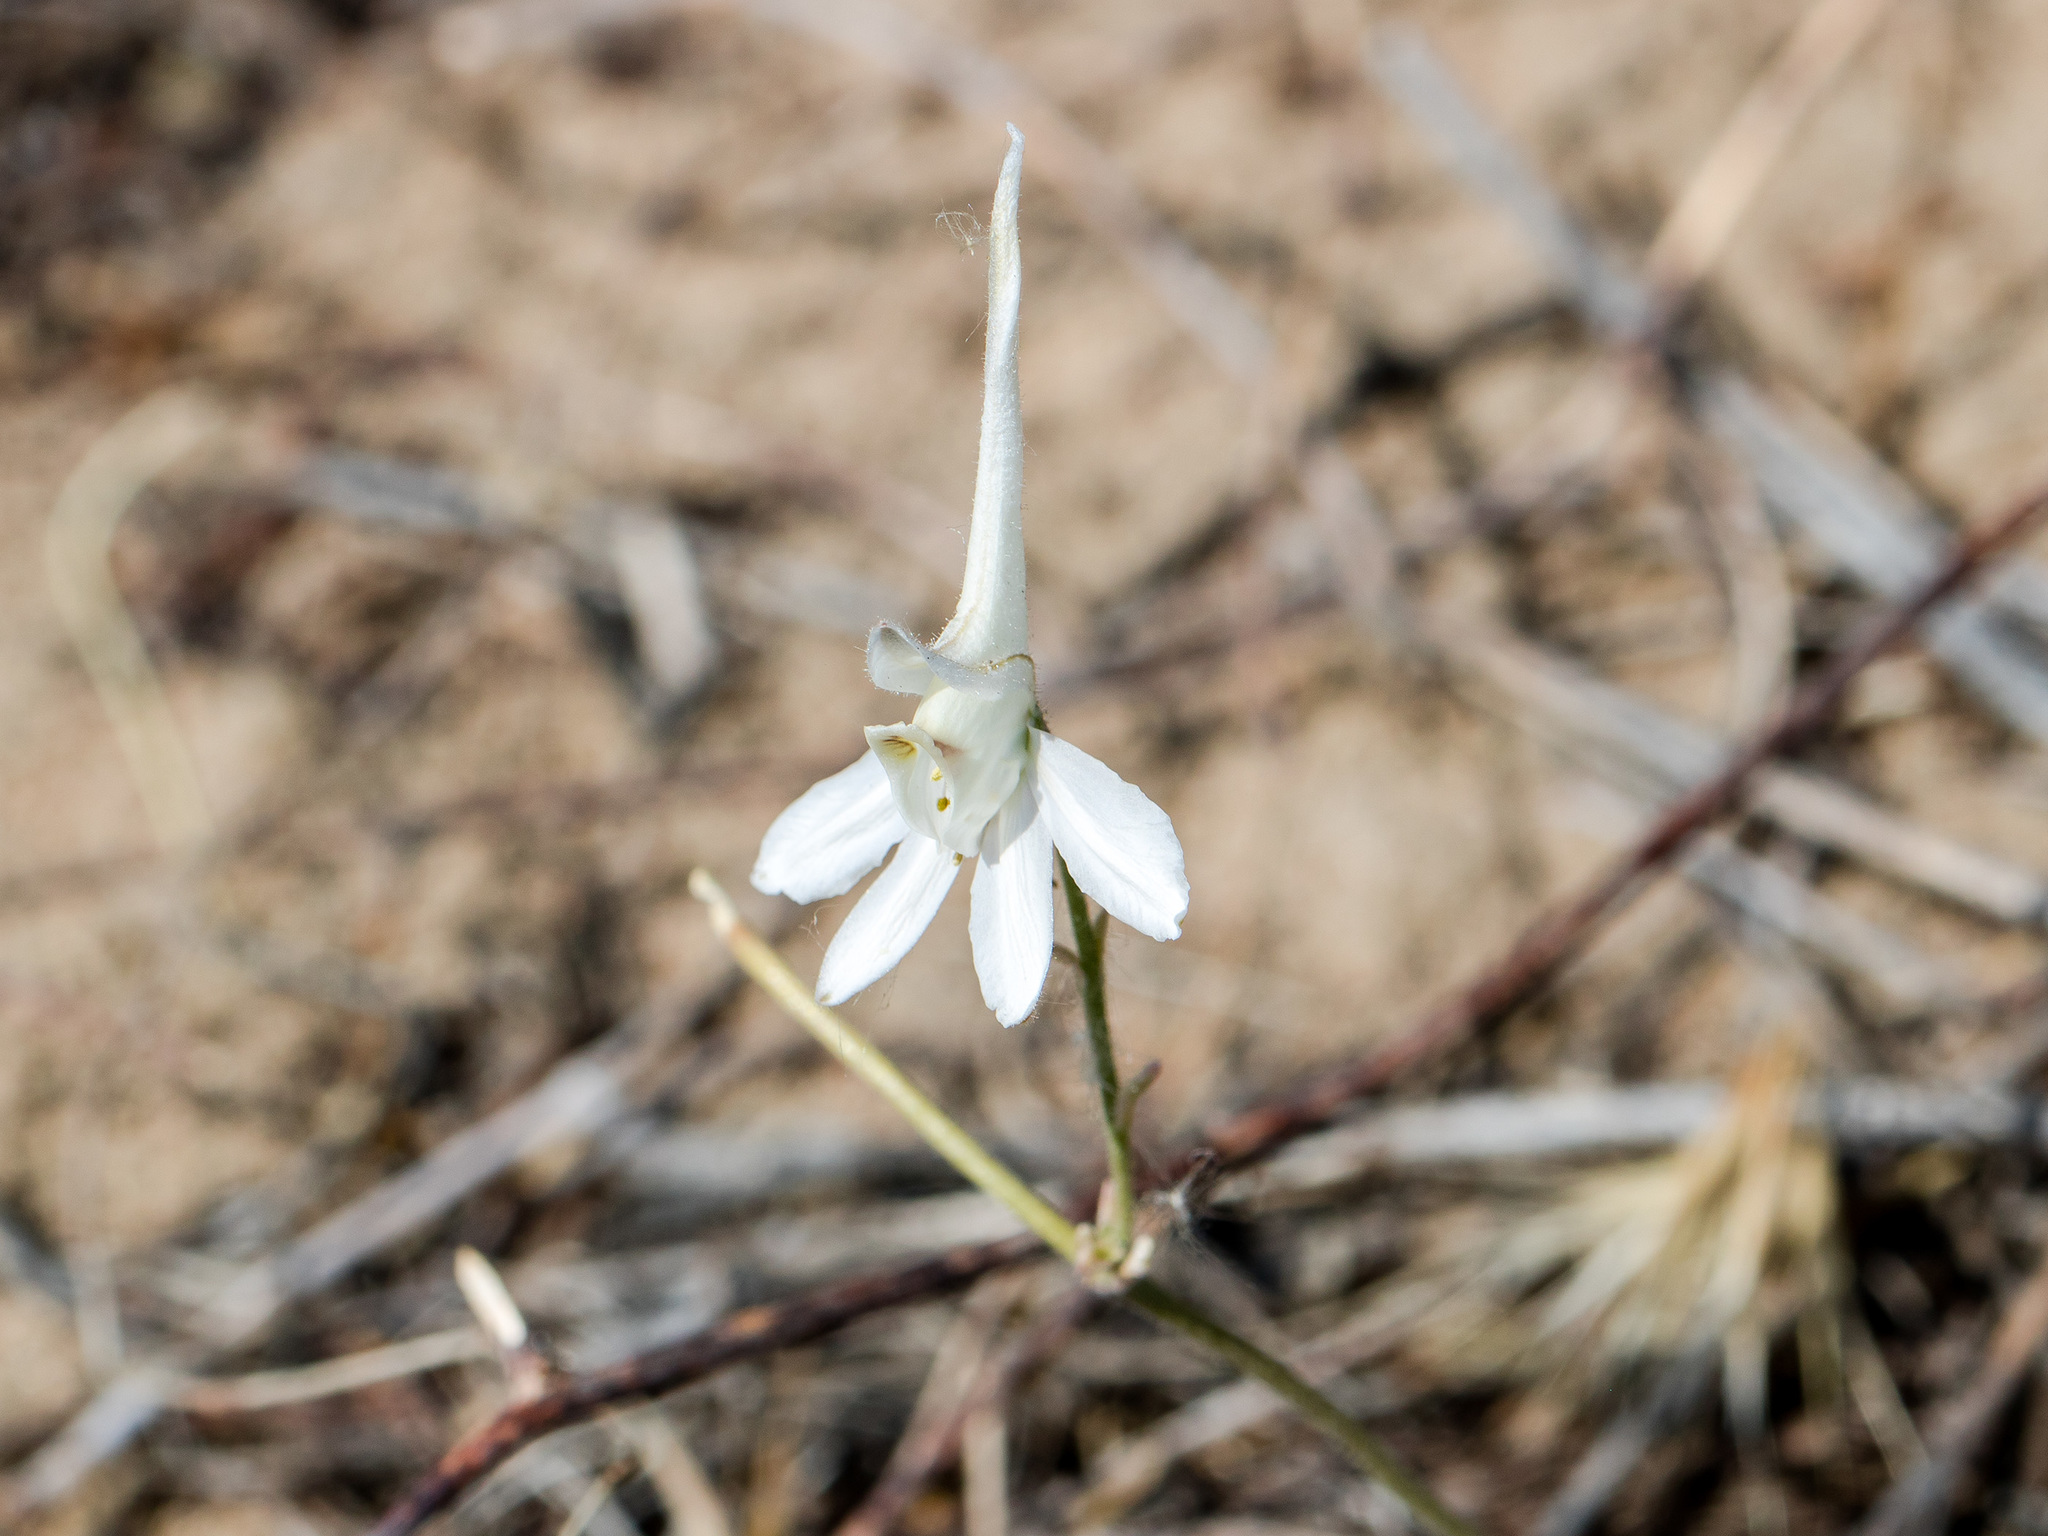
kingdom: Plantae
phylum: Tracheophyta
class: Magnoliopsida
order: Ranunculales
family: Ranunculaceae
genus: Delphinium
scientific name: Delphinium rugulosum
